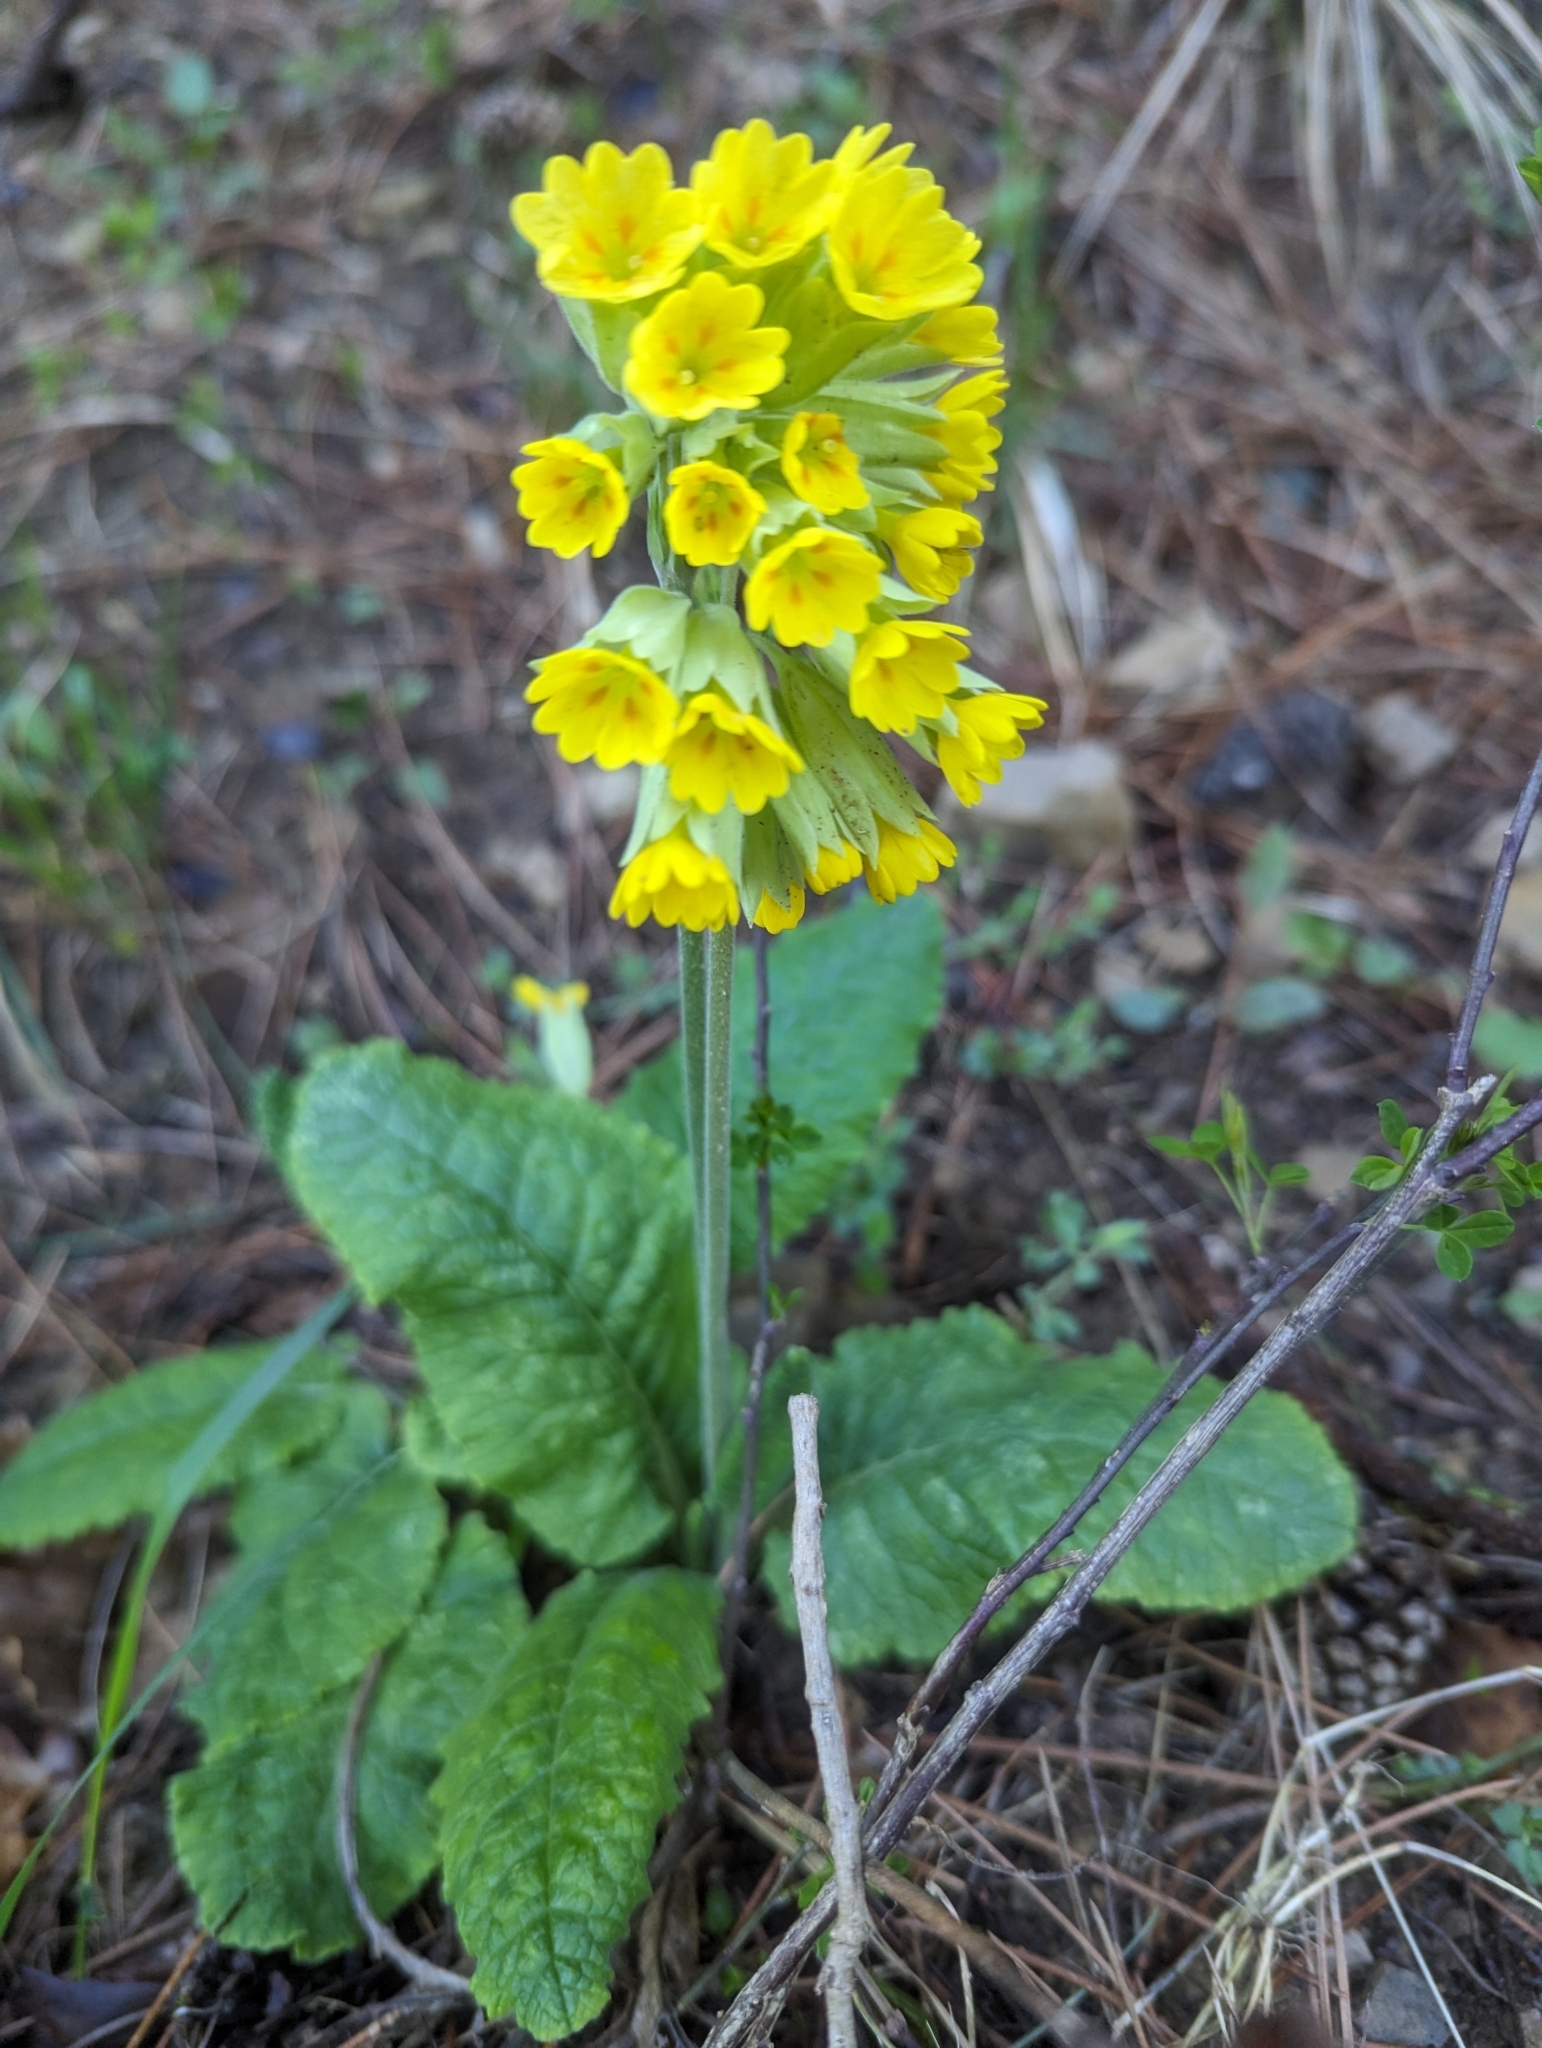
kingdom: Plantae
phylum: Tracheophyta
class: Magnoliopsida
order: Ericales
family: Primulaceae
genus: Primula
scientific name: Primula veris
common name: Cowslip
